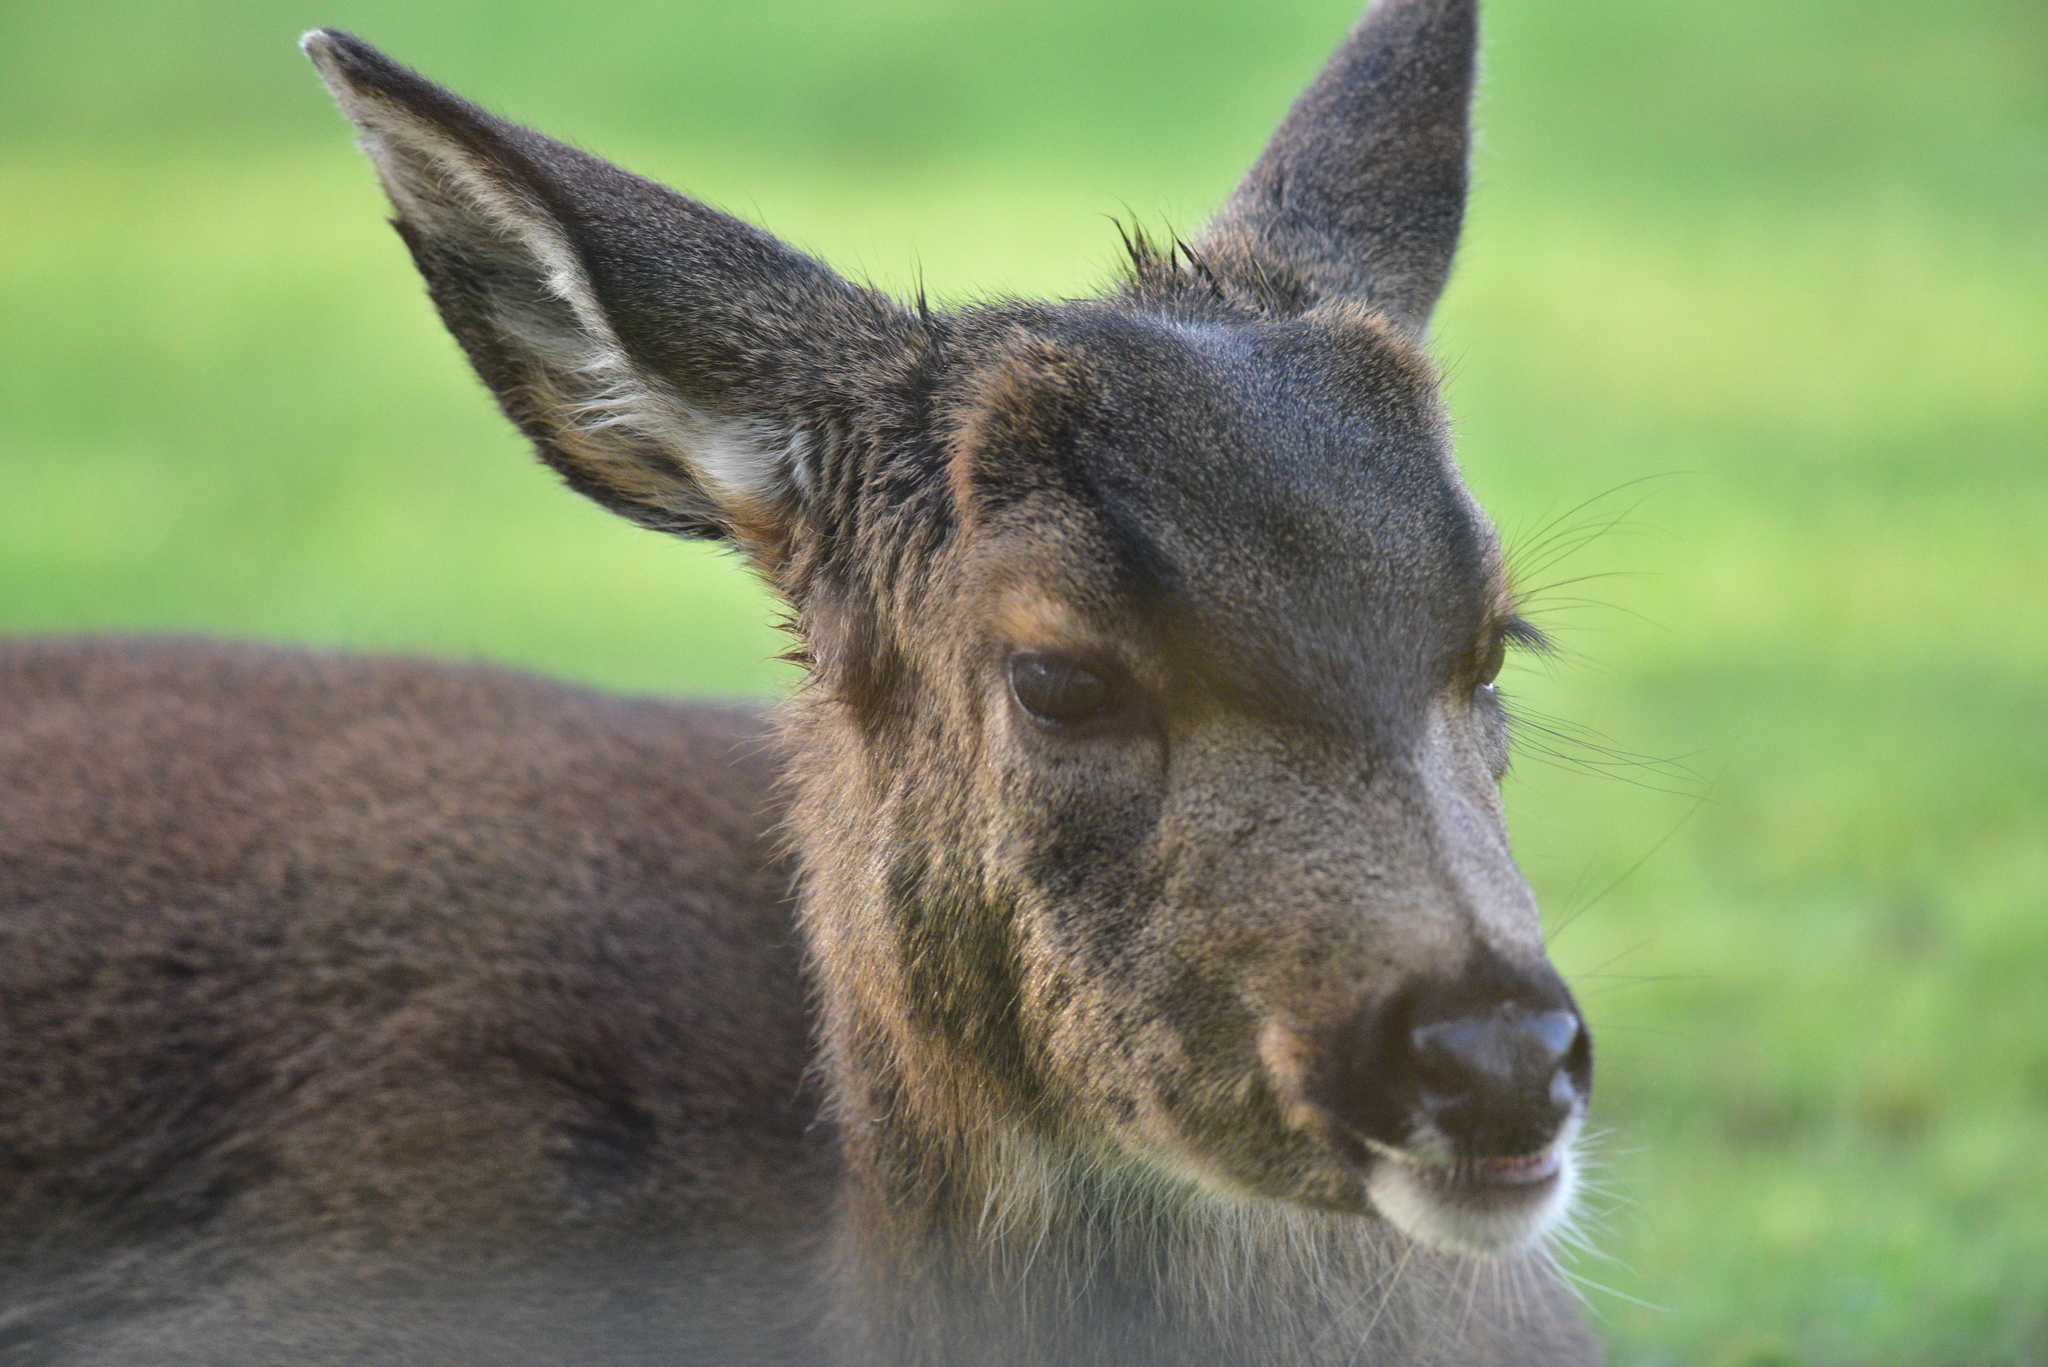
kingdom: Animalia
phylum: Chordata
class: Mammalia
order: Artiodactyla
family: Cervidae
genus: Odocoileus
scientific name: Odocoileus hemionus
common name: Mule deer
